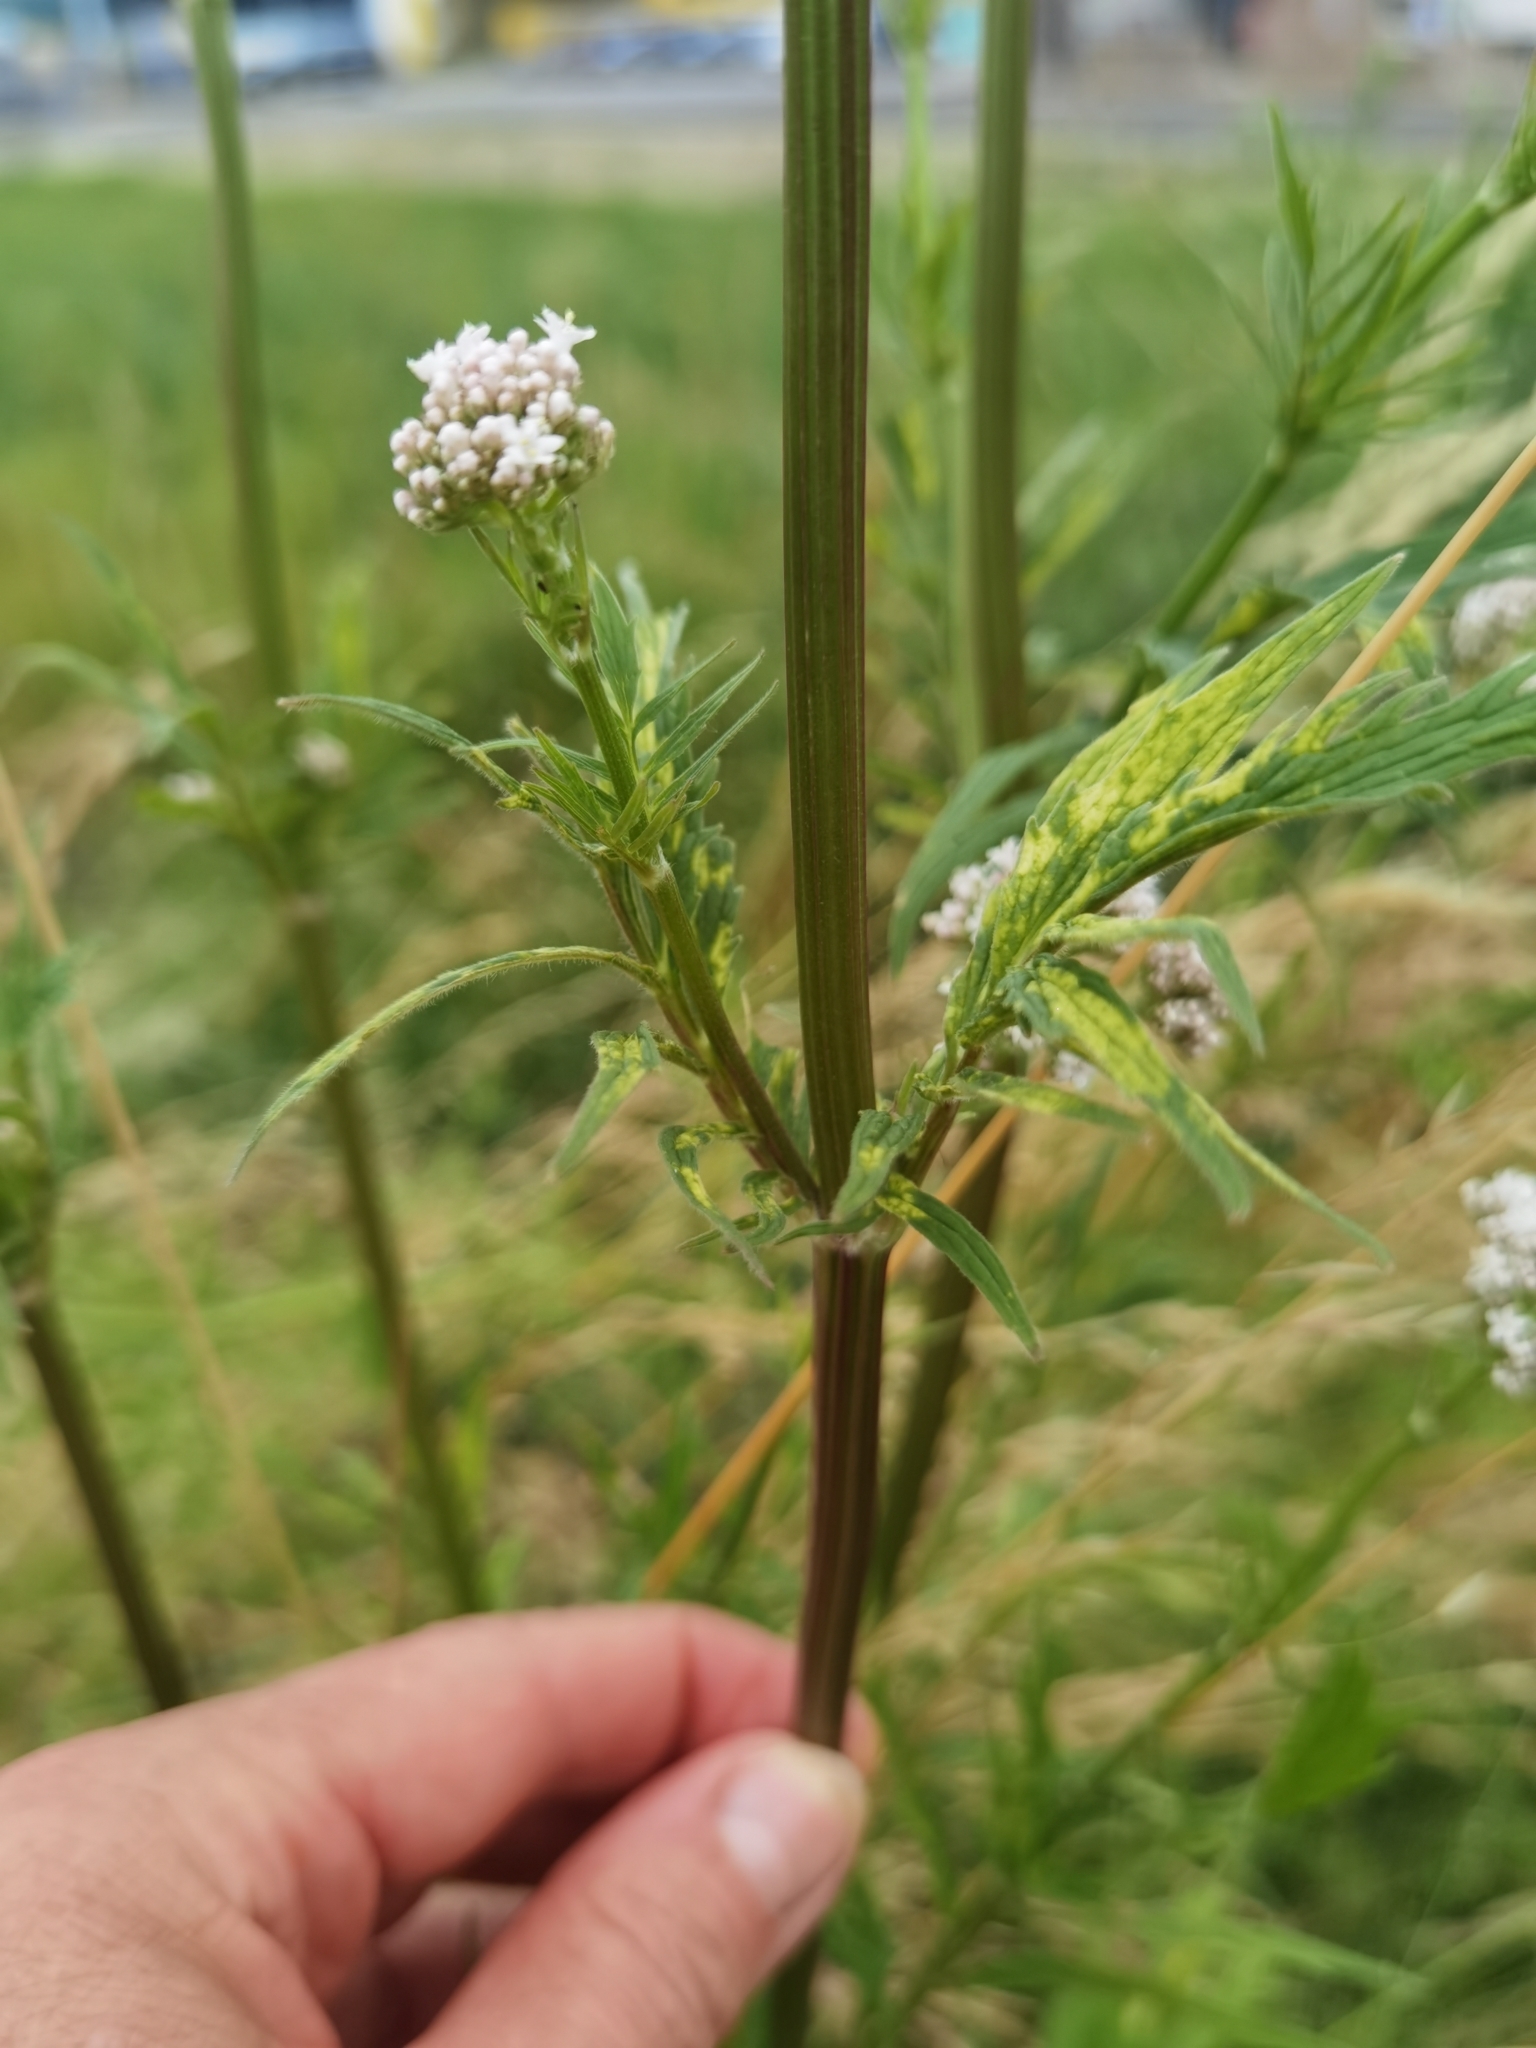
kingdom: Plantae
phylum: Tracheophyta
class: Magnoliopsida
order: Dipsacales
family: Caprifoliaceae
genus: Valeriana
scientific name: Valeriana officinalis
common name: Common valerian
